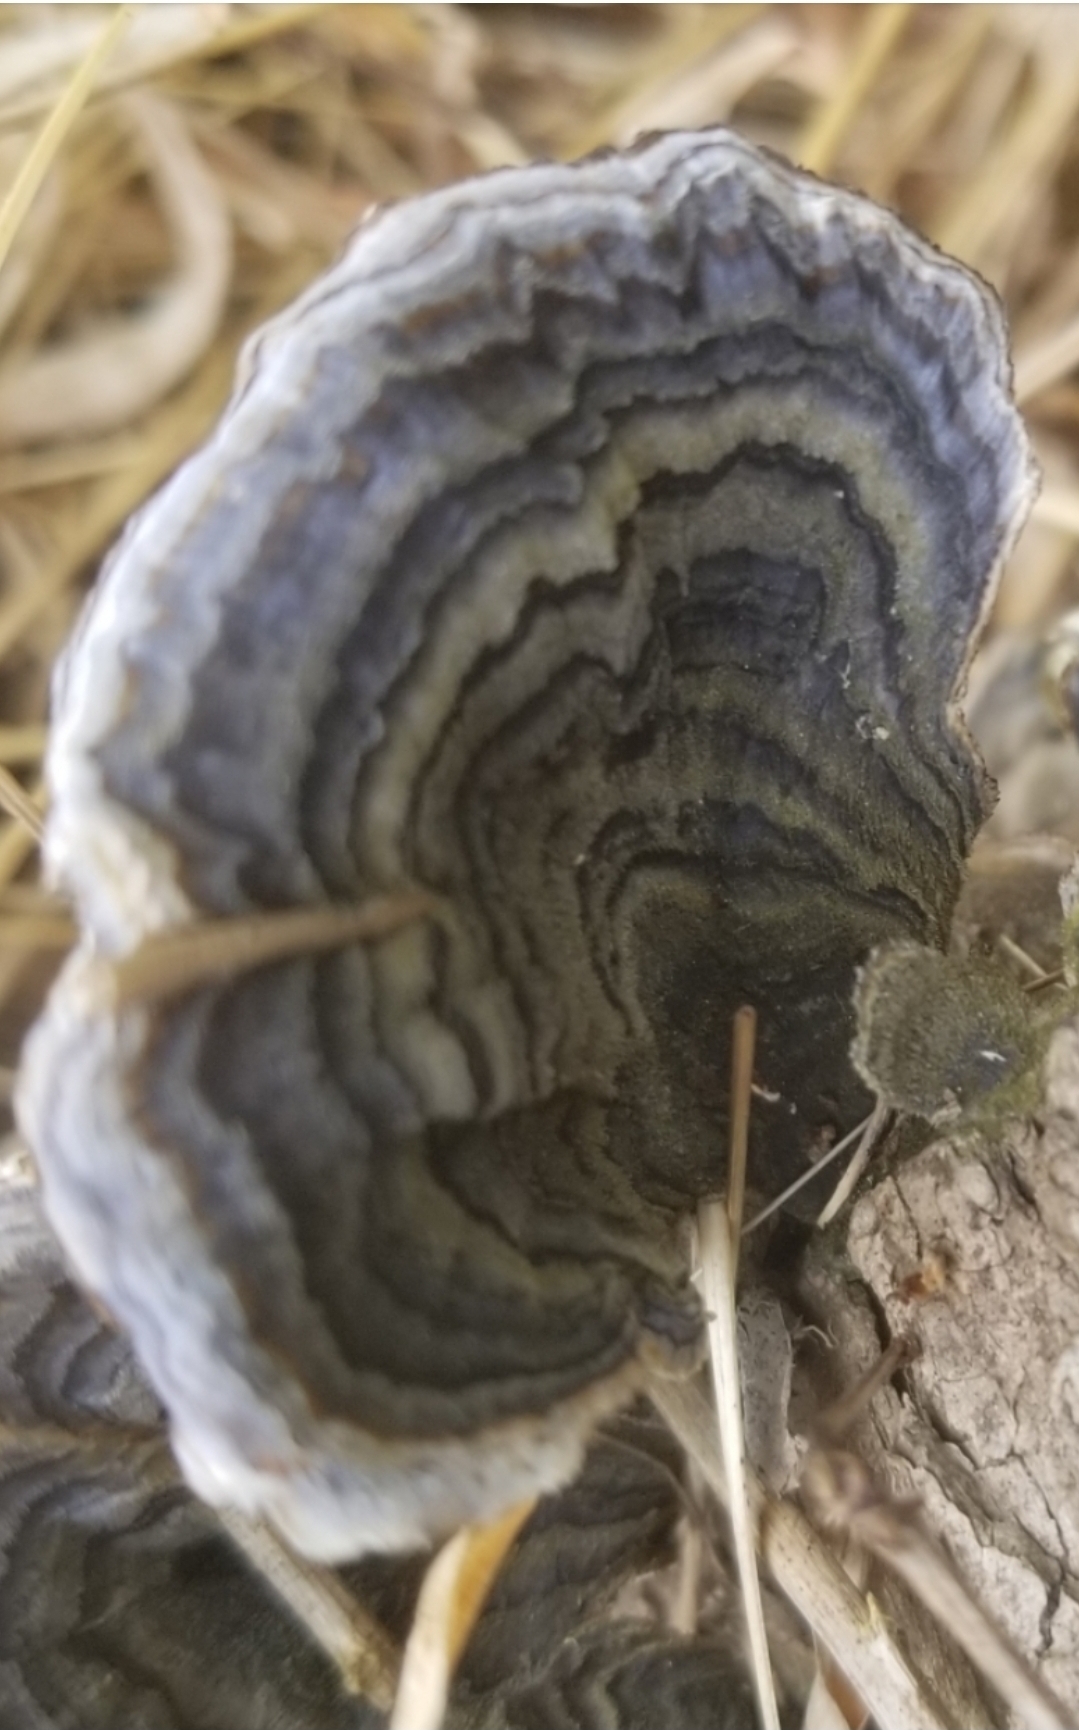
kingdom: Fungi
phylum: Basidiomycota
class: Agaricomycetes
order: Polyporales
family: Polyporaceae
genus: Trametes
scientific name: Trametes versicolor
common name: Turkeytail
